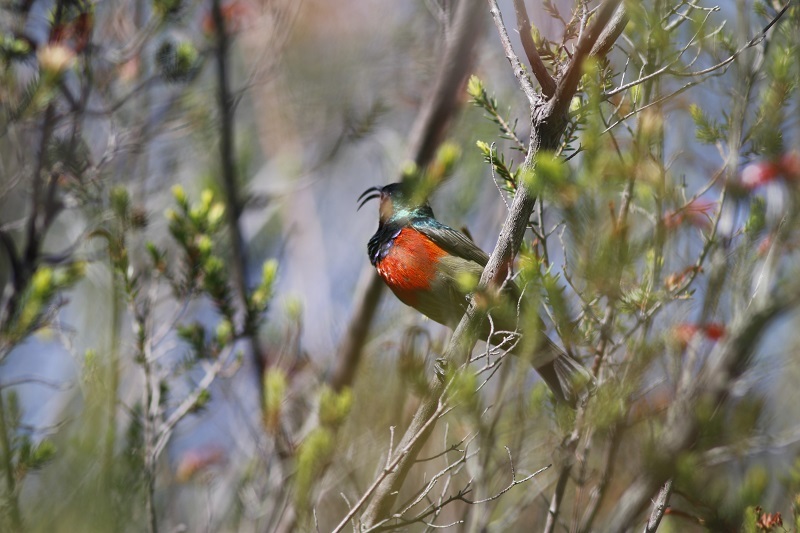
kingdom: Animalia
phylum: Chordata
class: Aves
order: Passeriformes
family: Nectariniidae
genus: Cinnyris
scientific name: Cinnyris afer
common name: Greater double-collared sunbird
